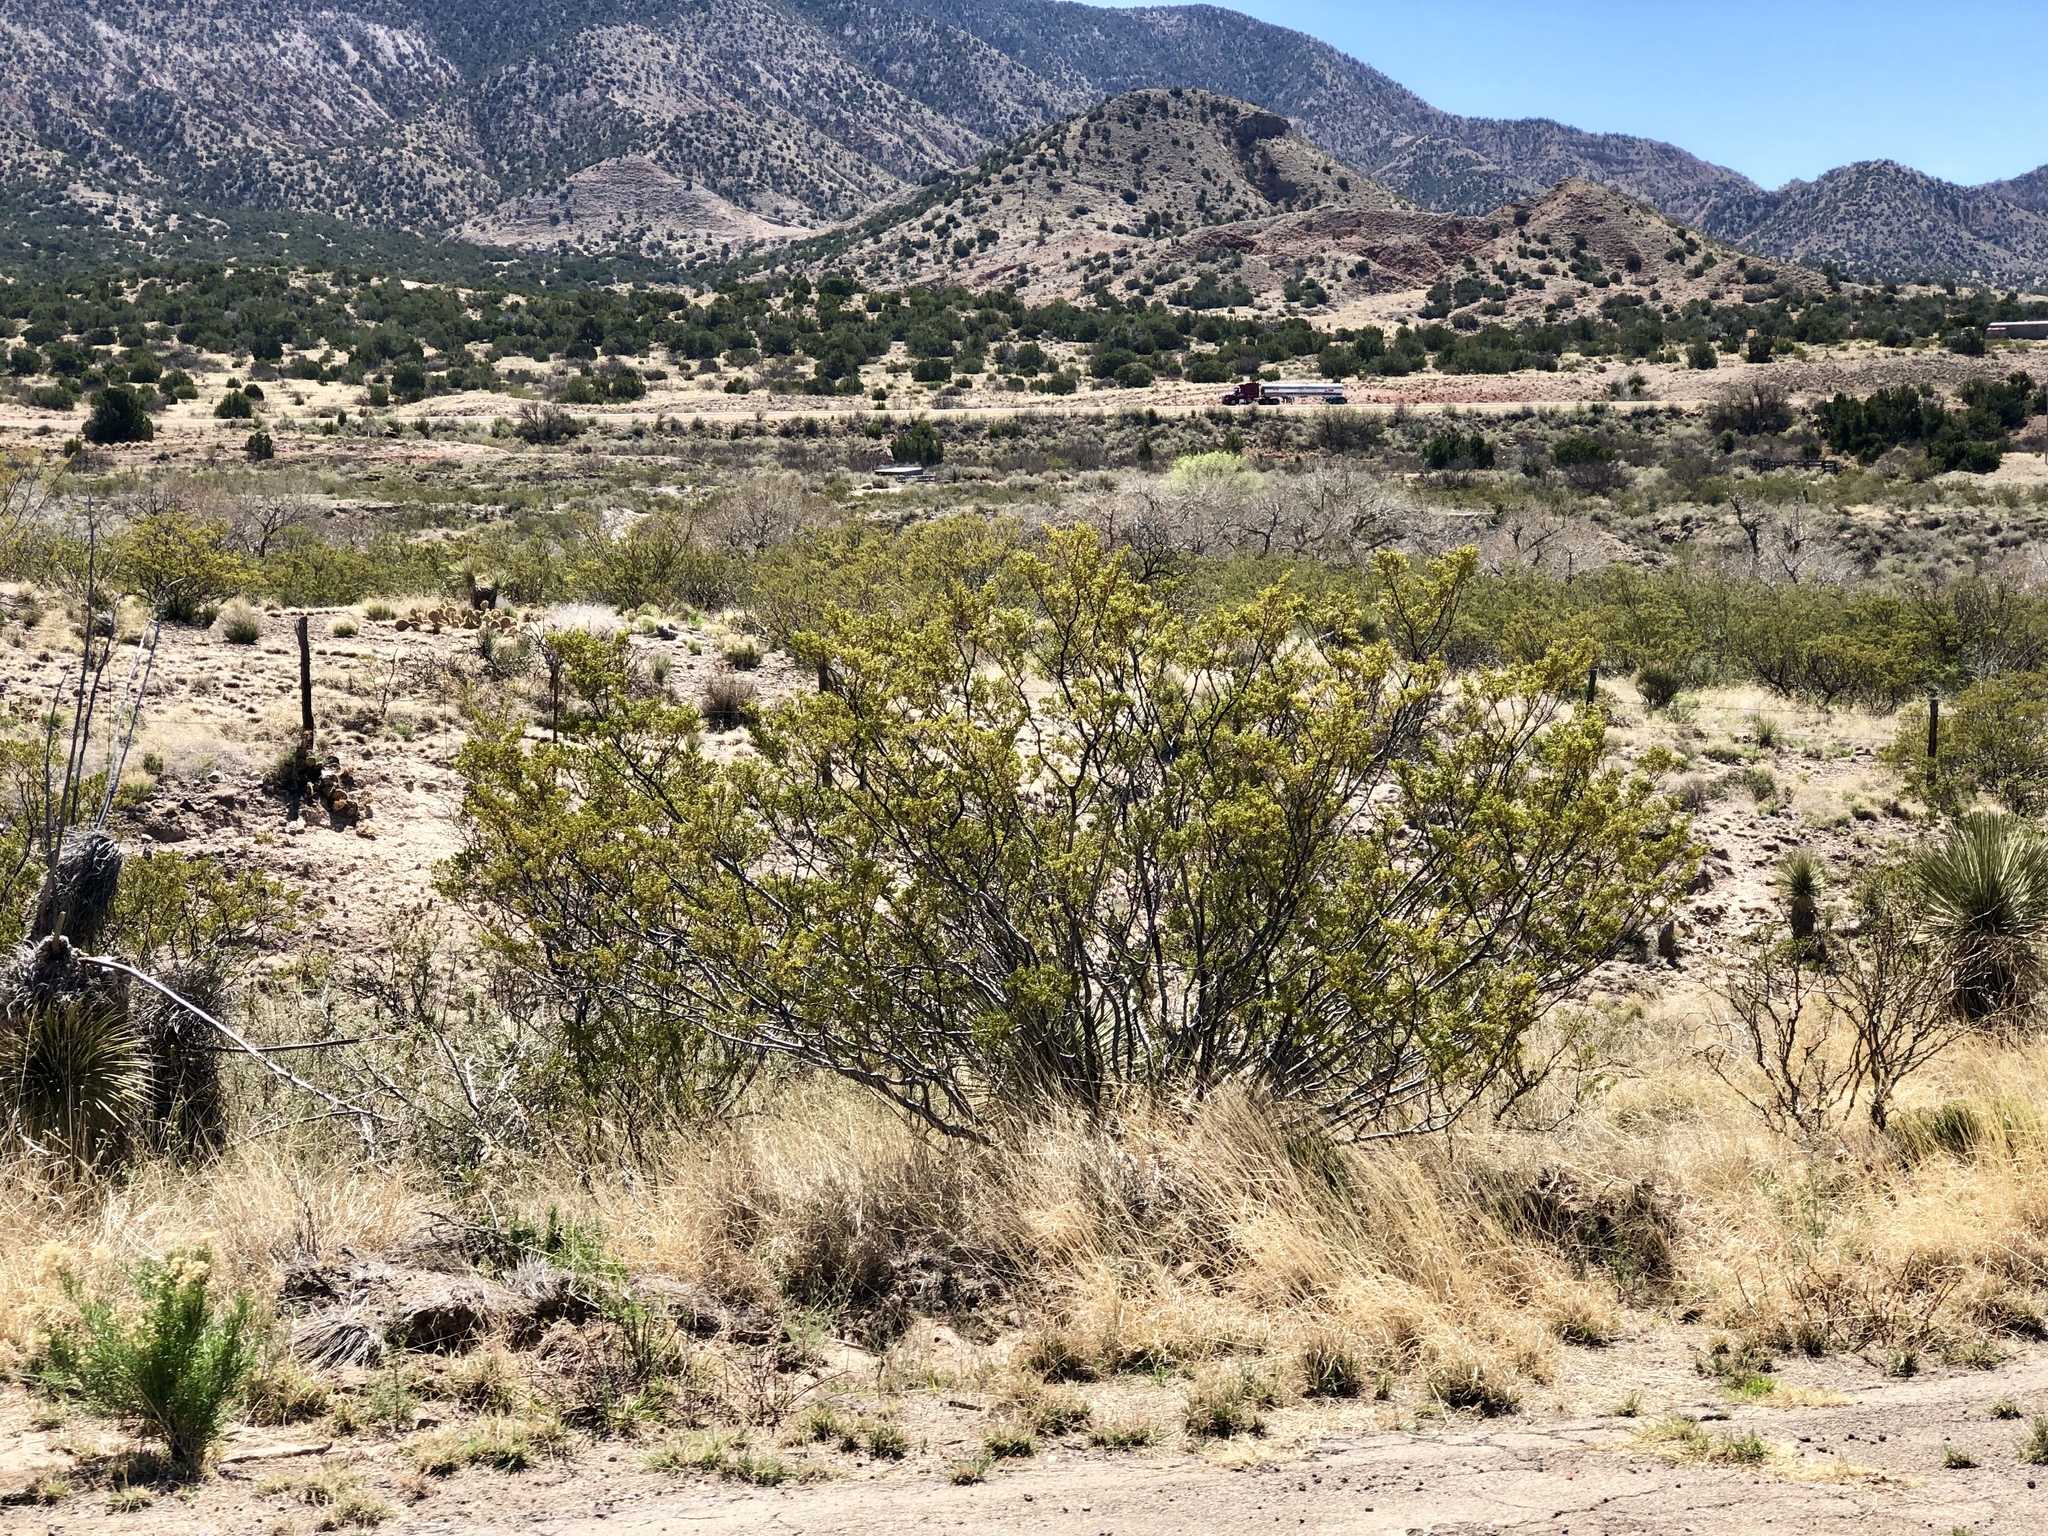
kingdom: Plantae
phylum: Tracheophyta
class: Magnoliopsida
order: Zygophyllales
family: Zygophyllaceae
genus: Larrea
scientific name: Larrea tridentata
